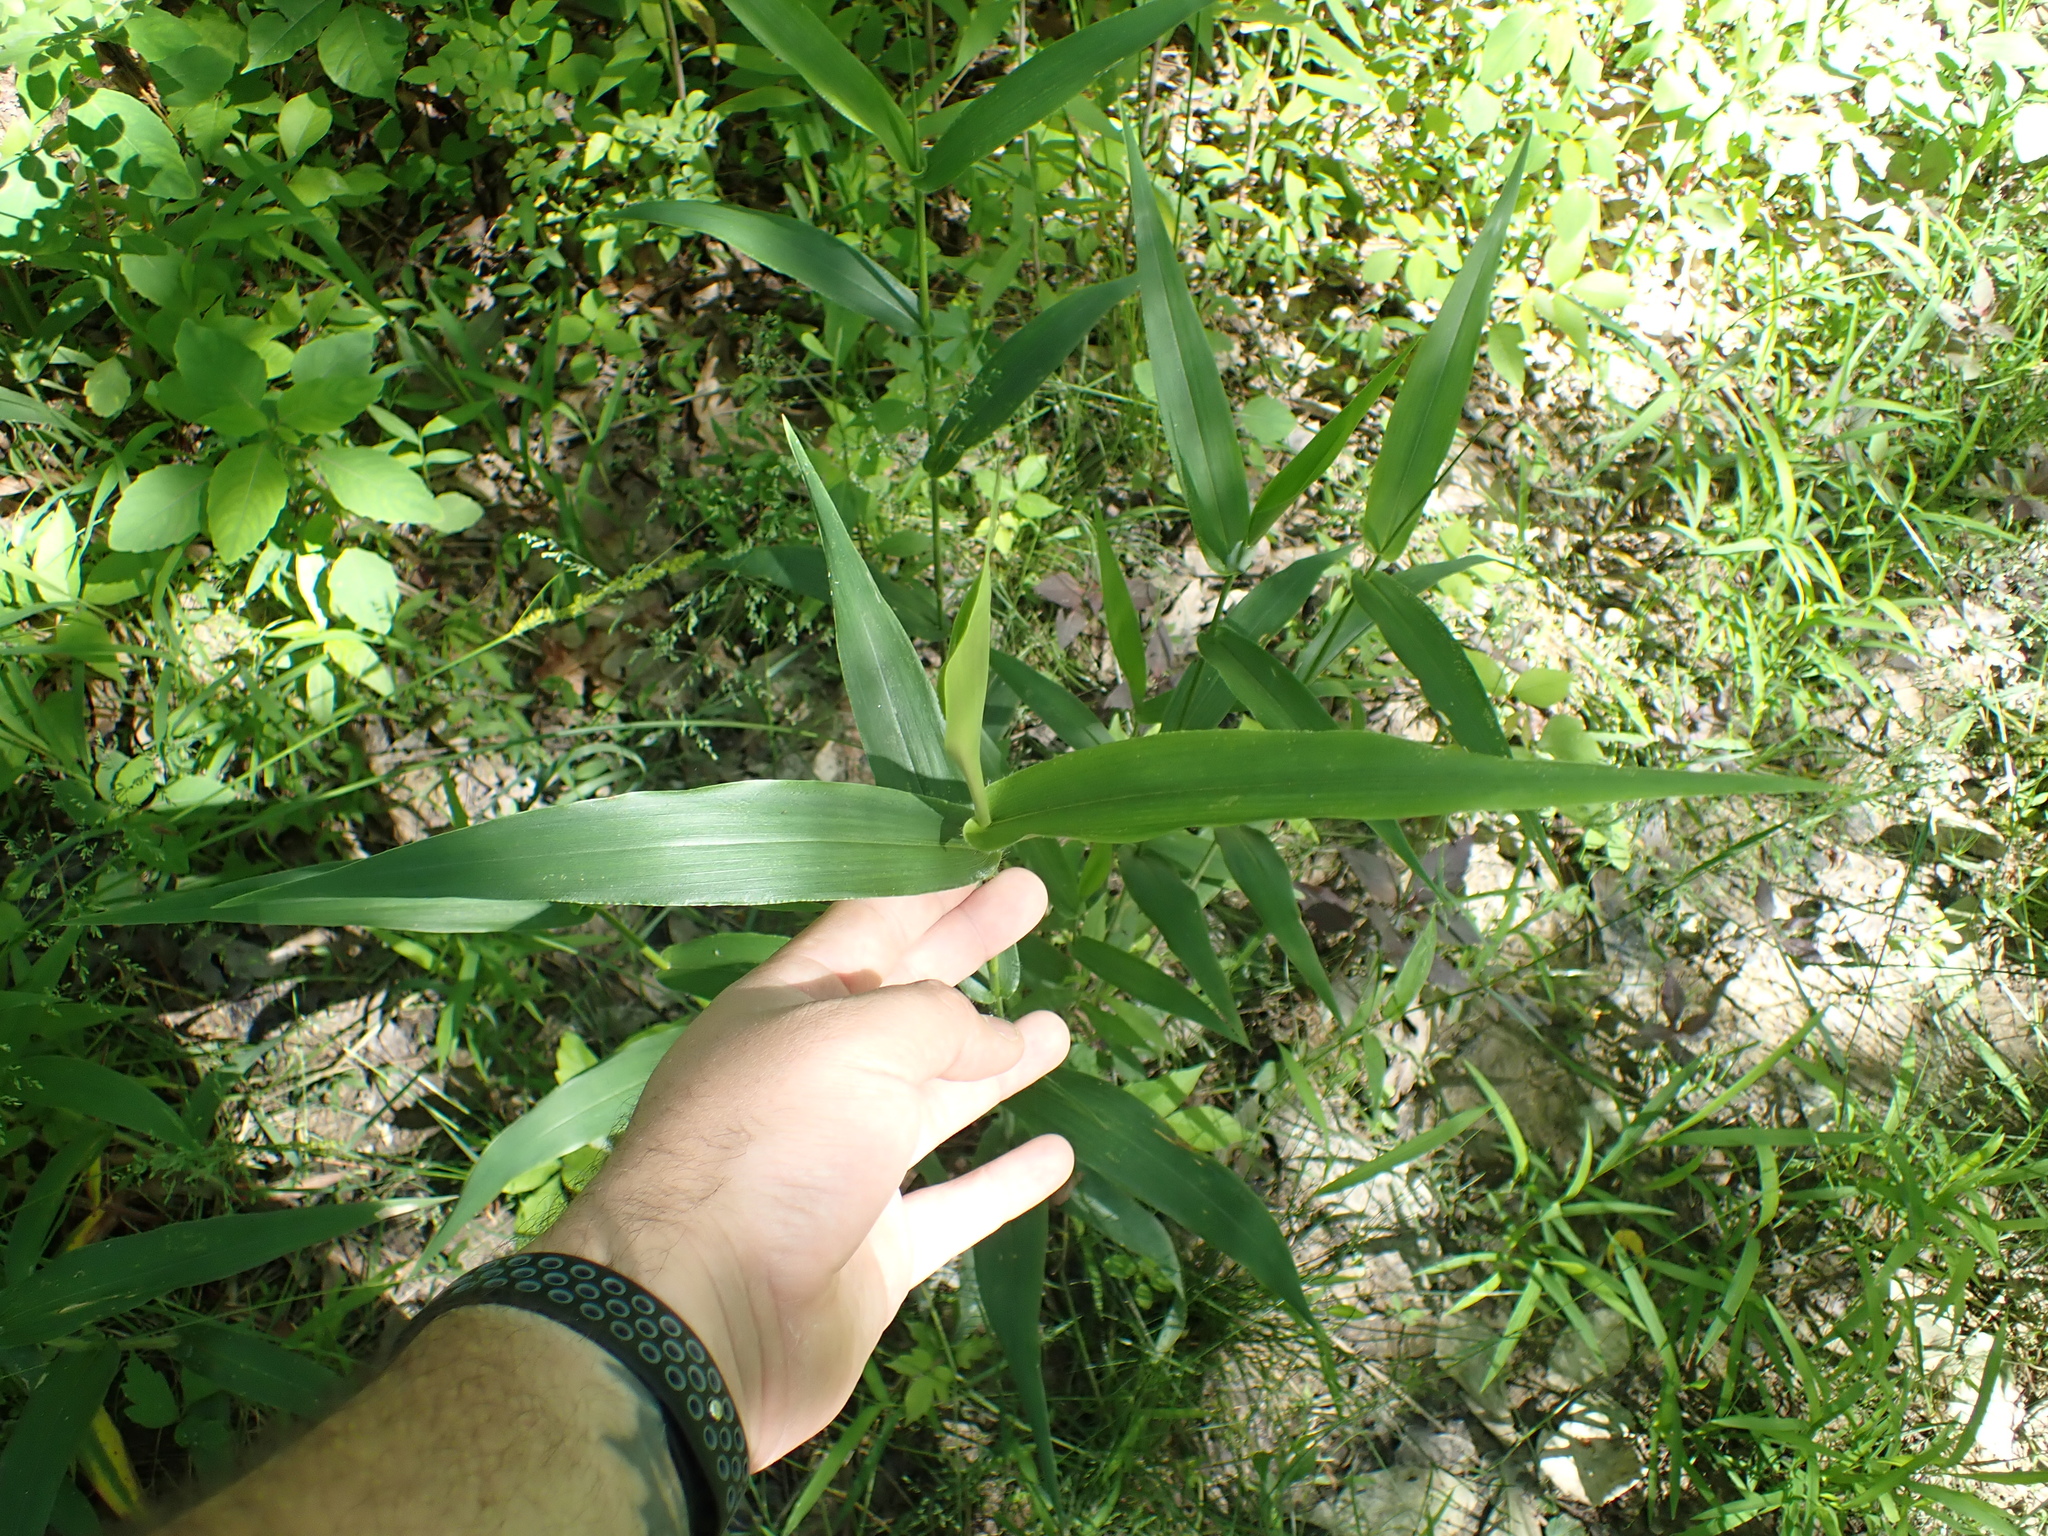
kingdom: Plantae
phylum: Tracheophyta
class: Liliopsida
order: Poales
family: Poaceae
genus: Dichanthelium
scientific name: Dichanthelium polyanthes
